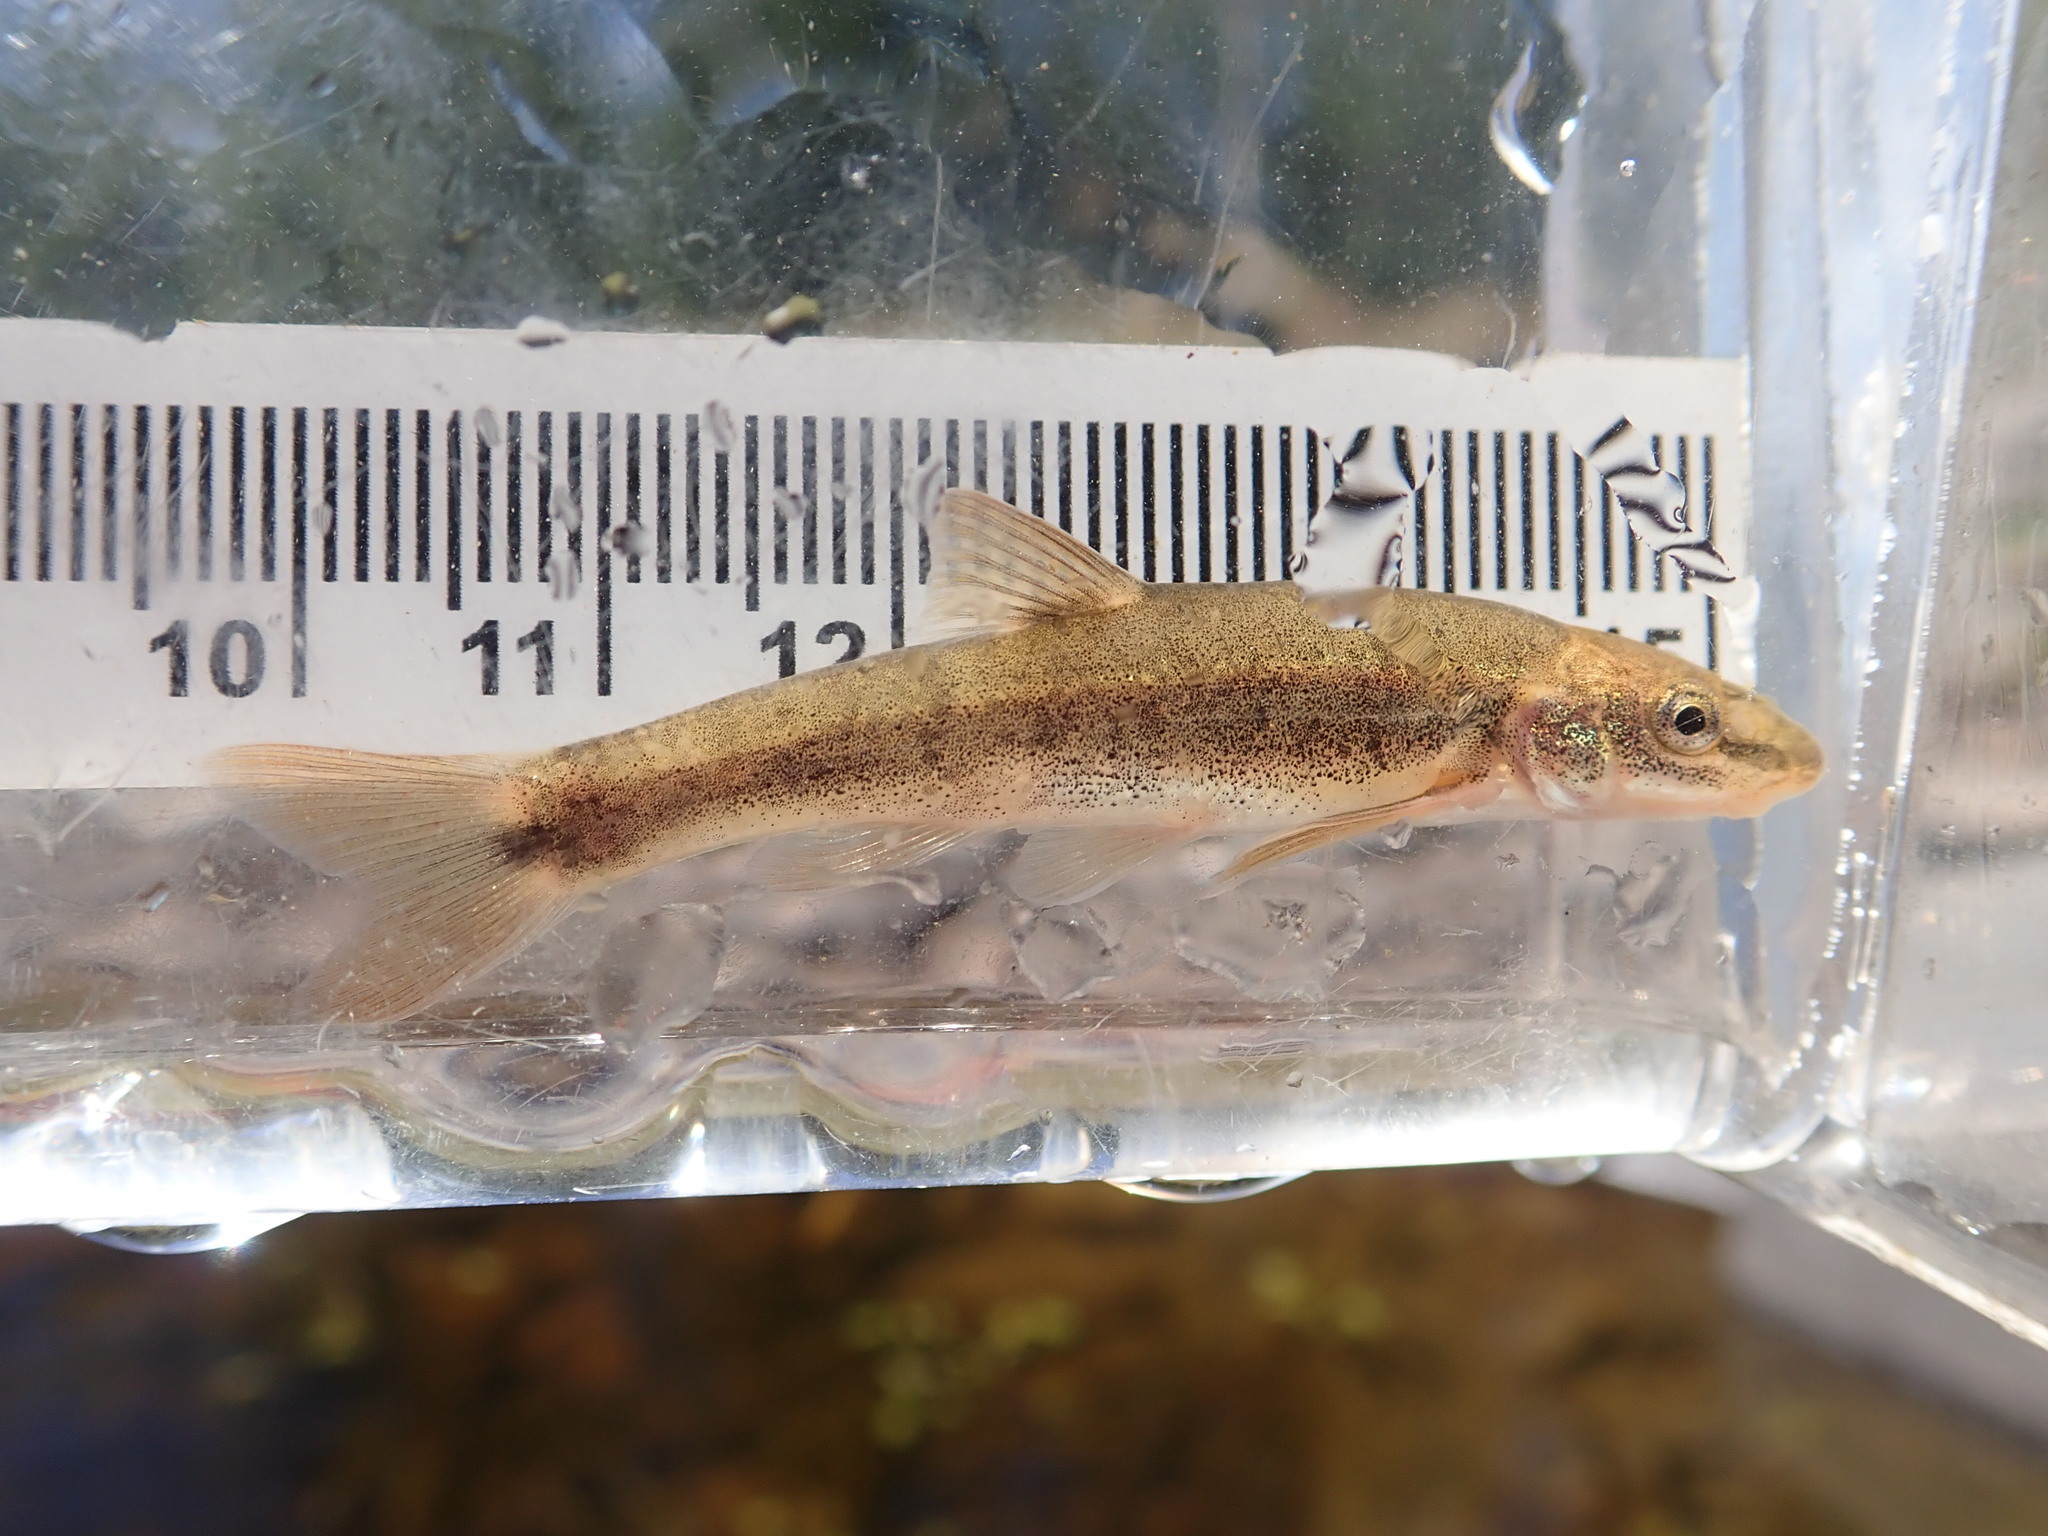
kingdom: Animalia
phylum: Chordata
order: Cypriniformes
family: Cyprinidae
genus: Rhinichthys
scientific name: Rhinichthys cataractae
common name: Longnose dace
